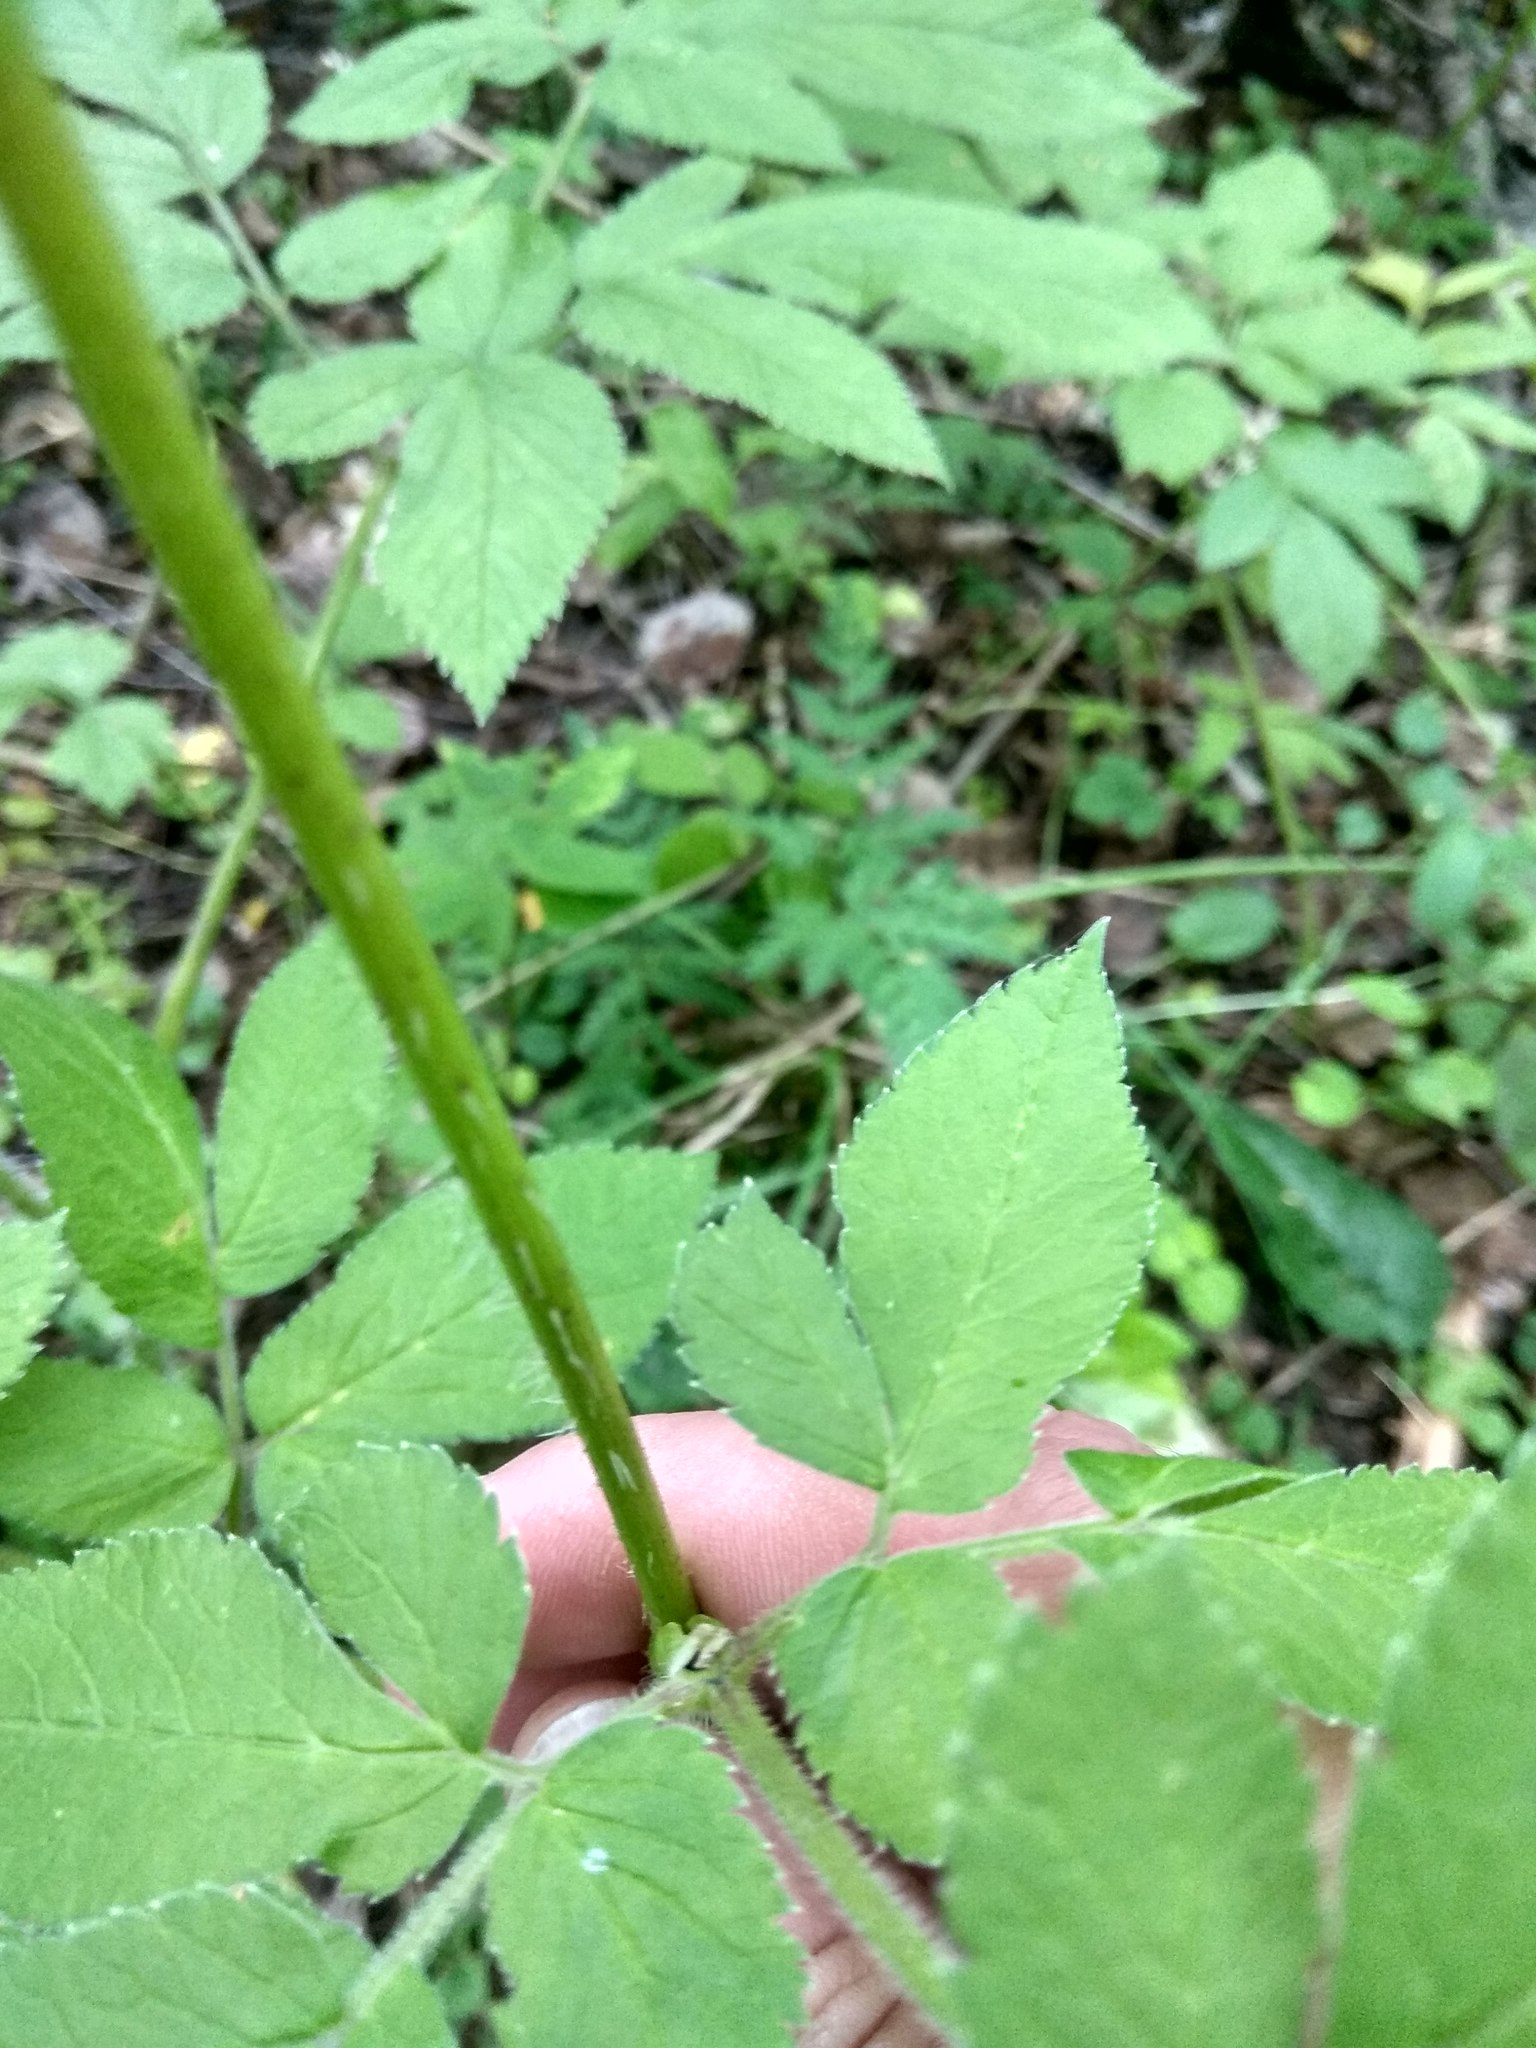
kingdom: Plantae
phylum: Tracheophyta
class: Magnoliopsida
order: Apiales
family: Apiaceae
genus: Chaerophyllum
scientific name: Chaerophyllum aromaticum
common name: Broadleaf chervil
